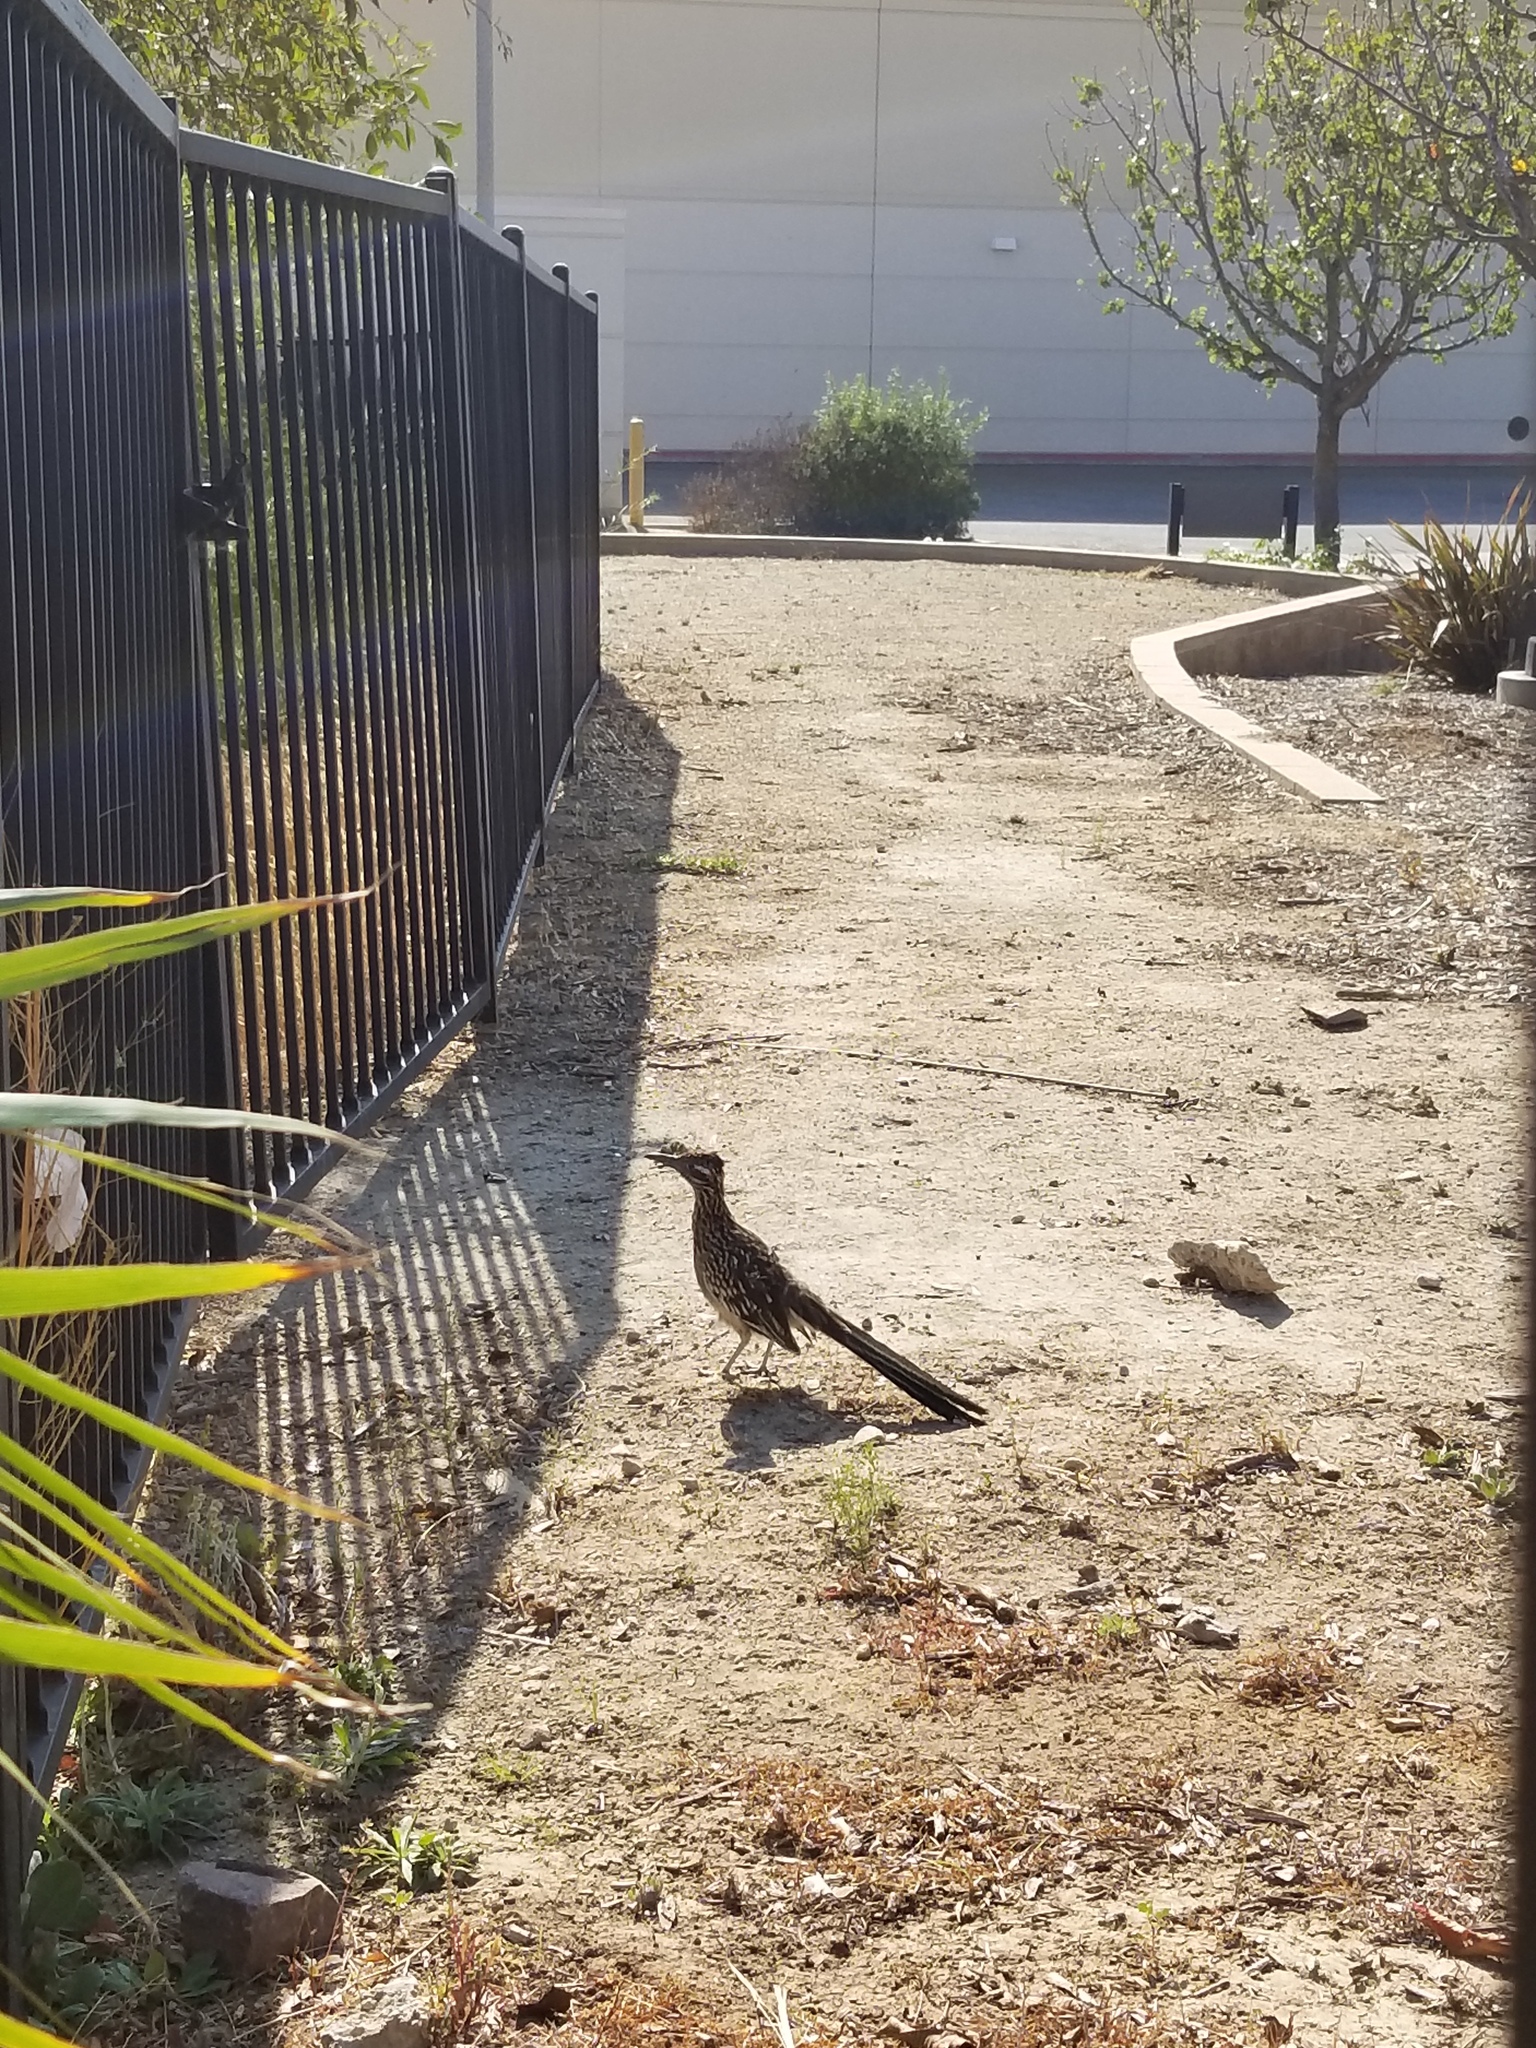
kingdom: Animalia
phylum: Chordata
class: Aves
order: Cuculiformes
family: Cuculidae
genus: Geococcyx
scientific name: Geococcyx californianus
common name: Greater roadrunner
